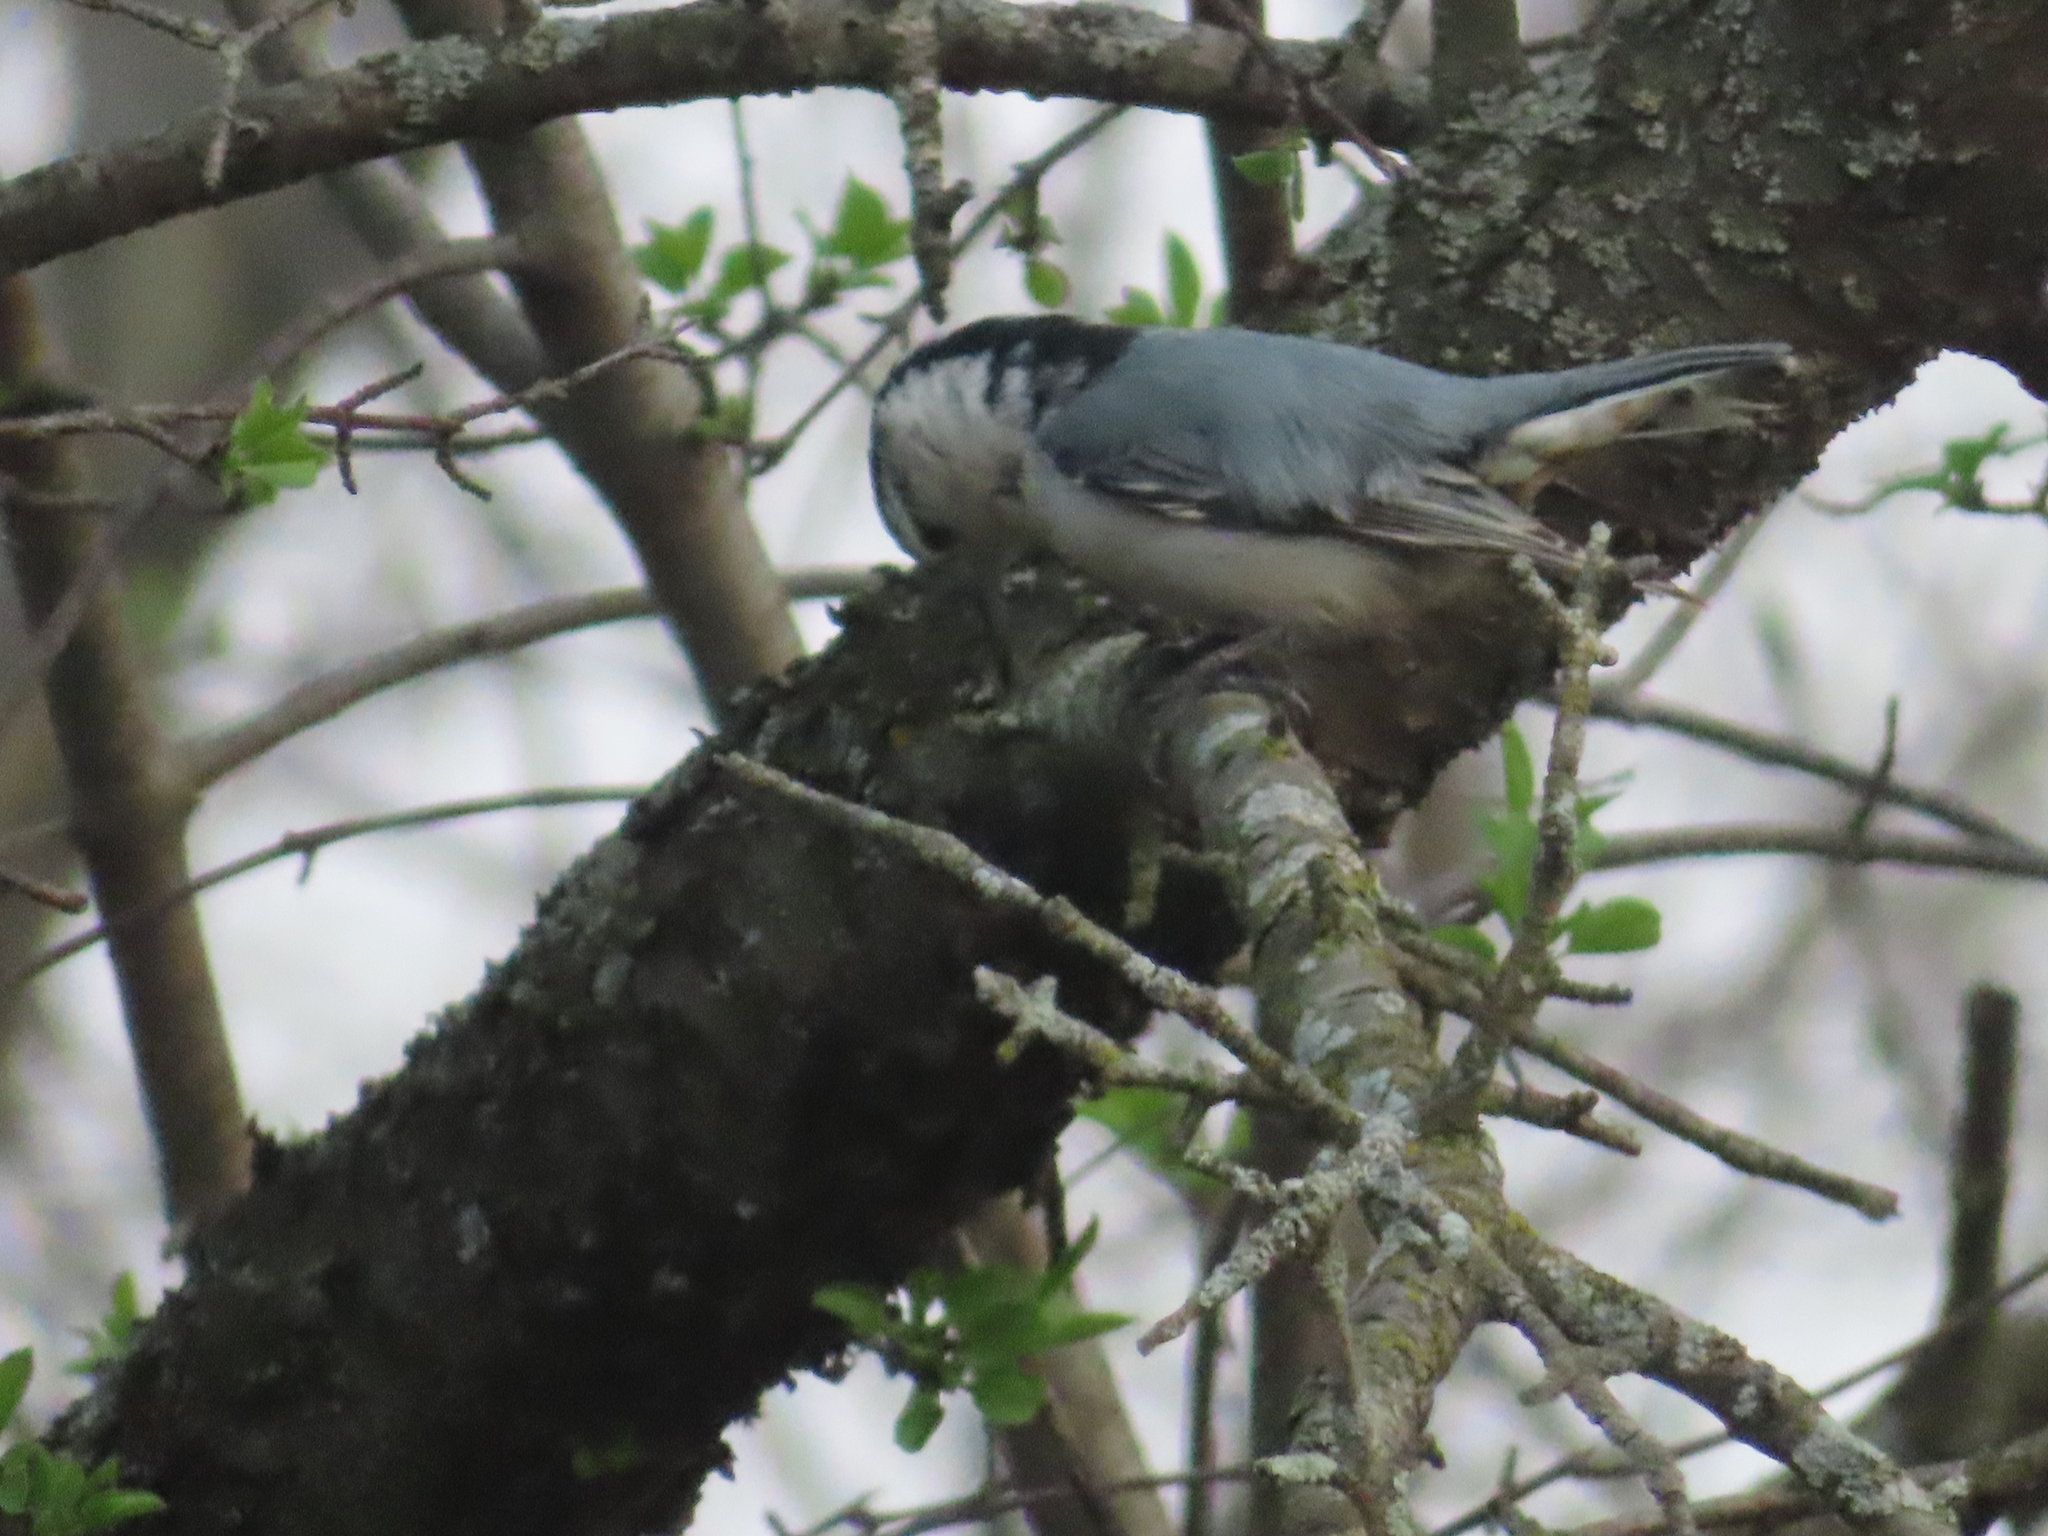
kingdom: Animalia
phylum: Chordata
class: Aves
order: Passeriformes
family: Sittidae
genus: Sitta
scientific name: Sitta carolinensis
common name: White-breasted nuthatch
